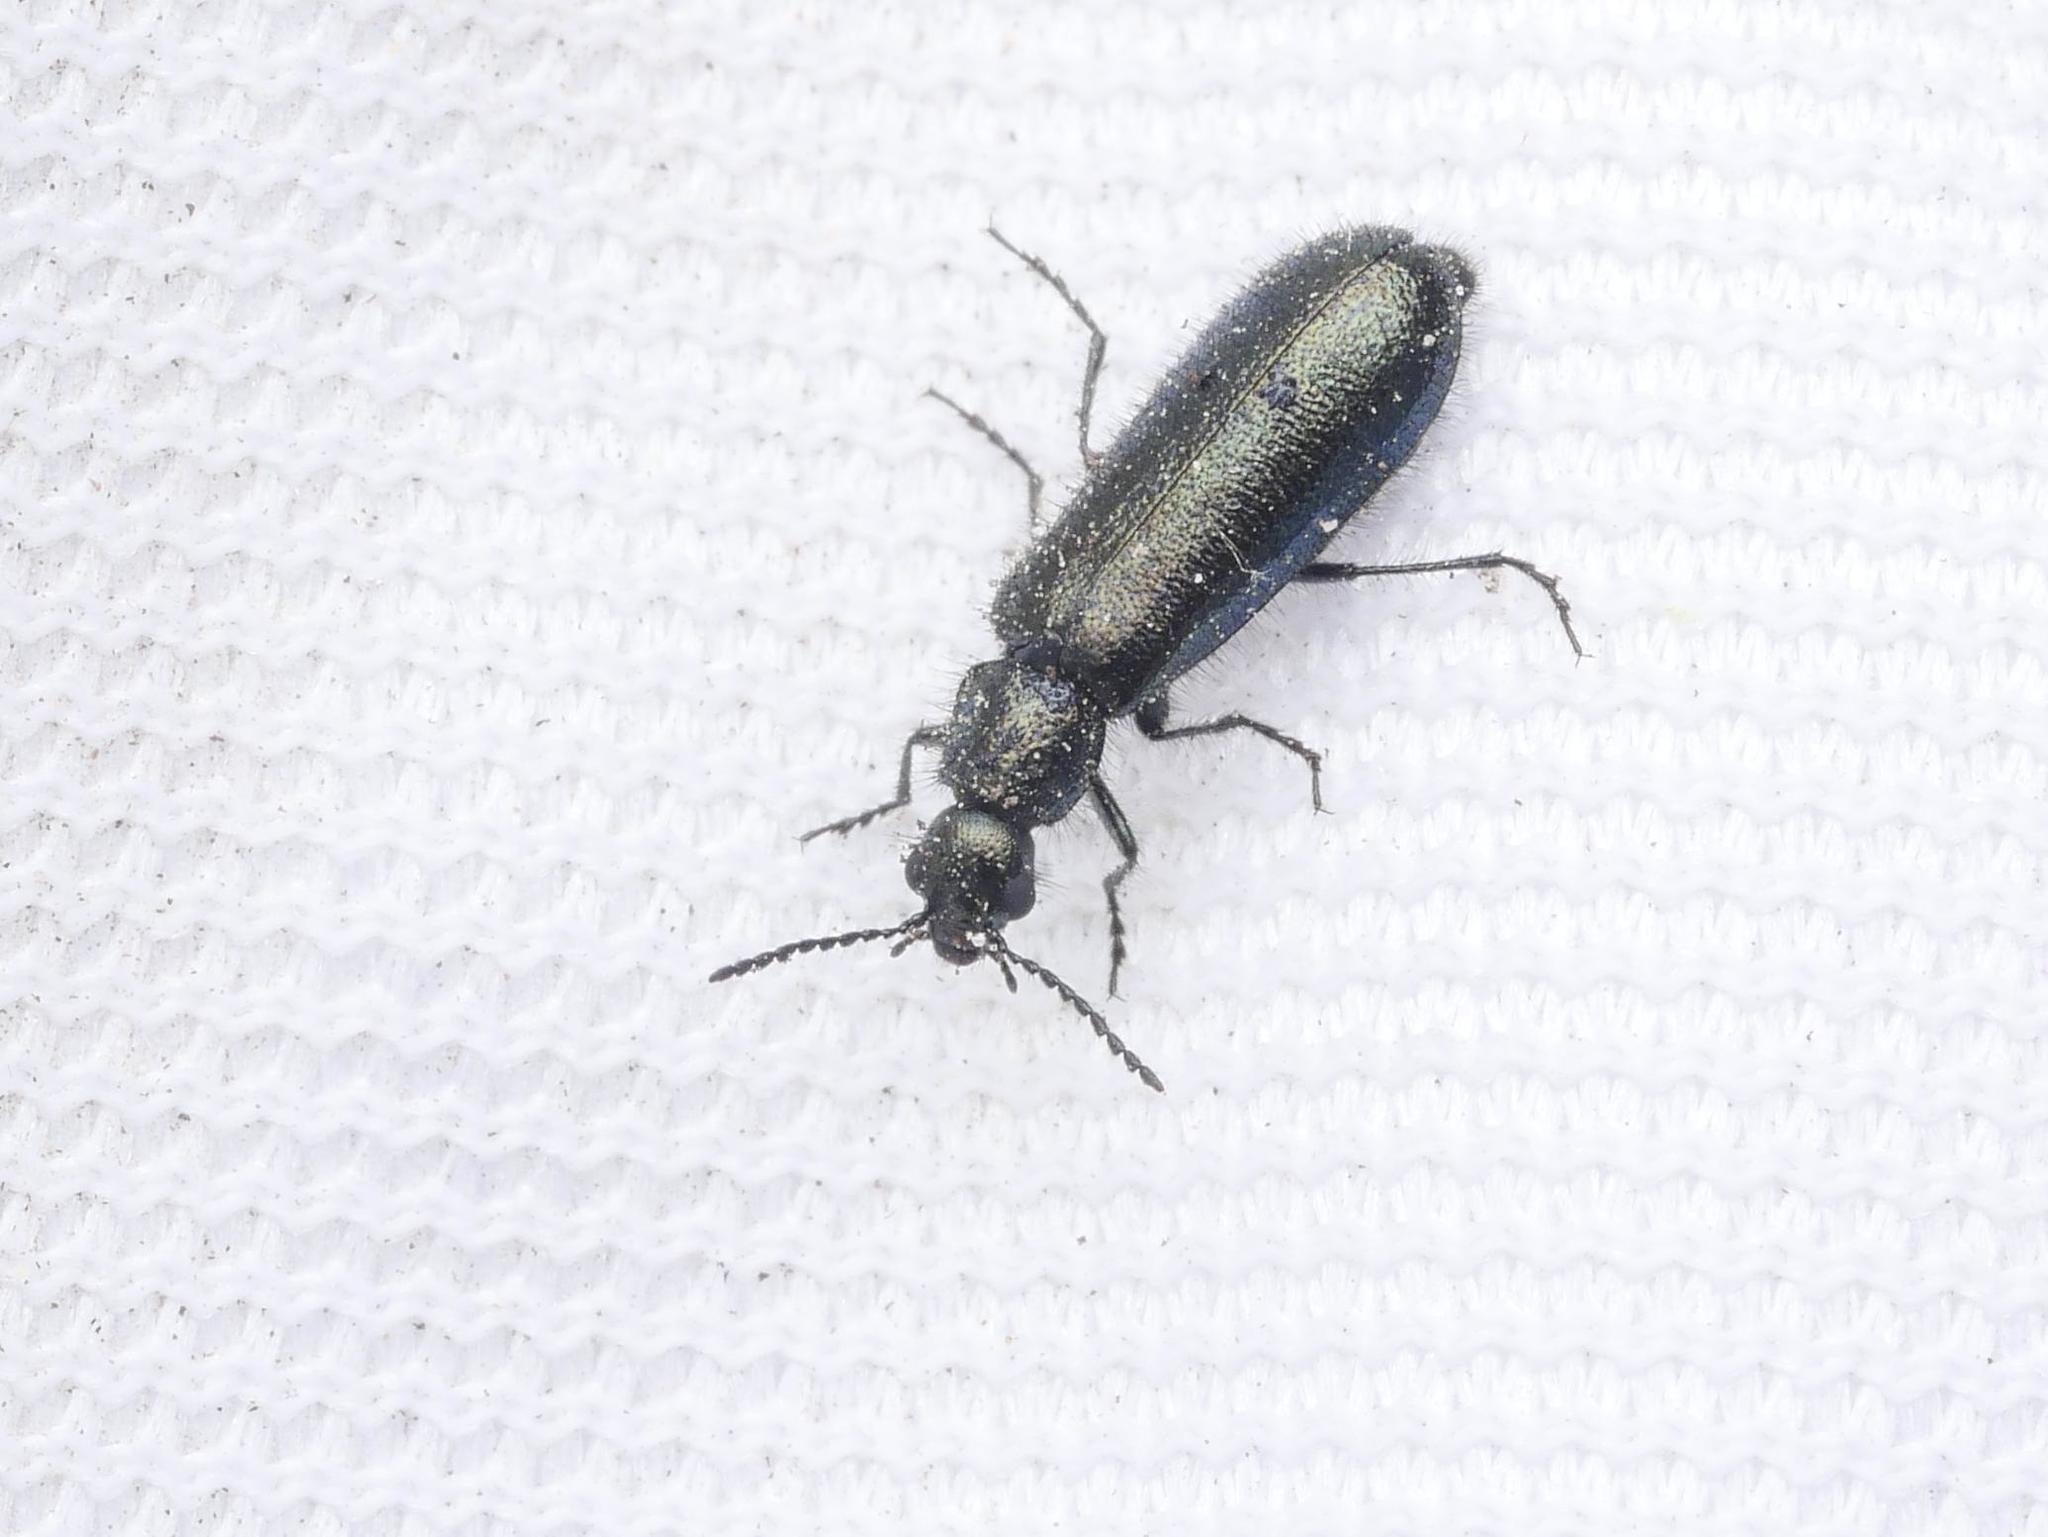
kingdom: Animalia
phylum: Arthropoda
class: Insecta
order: Coleoptera
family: Melyridae
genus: Dasytes
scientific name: Dasytes caeruleus
